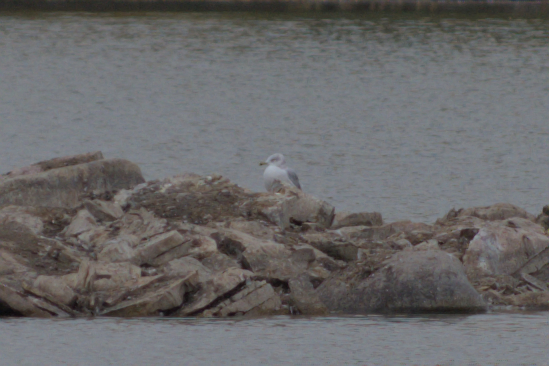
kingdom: Animalia
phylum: Chordata
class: Aves
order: Charadriiformes
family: Laridae
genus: Larus
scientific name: Larus delawarensis
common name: Ring-billed gull
